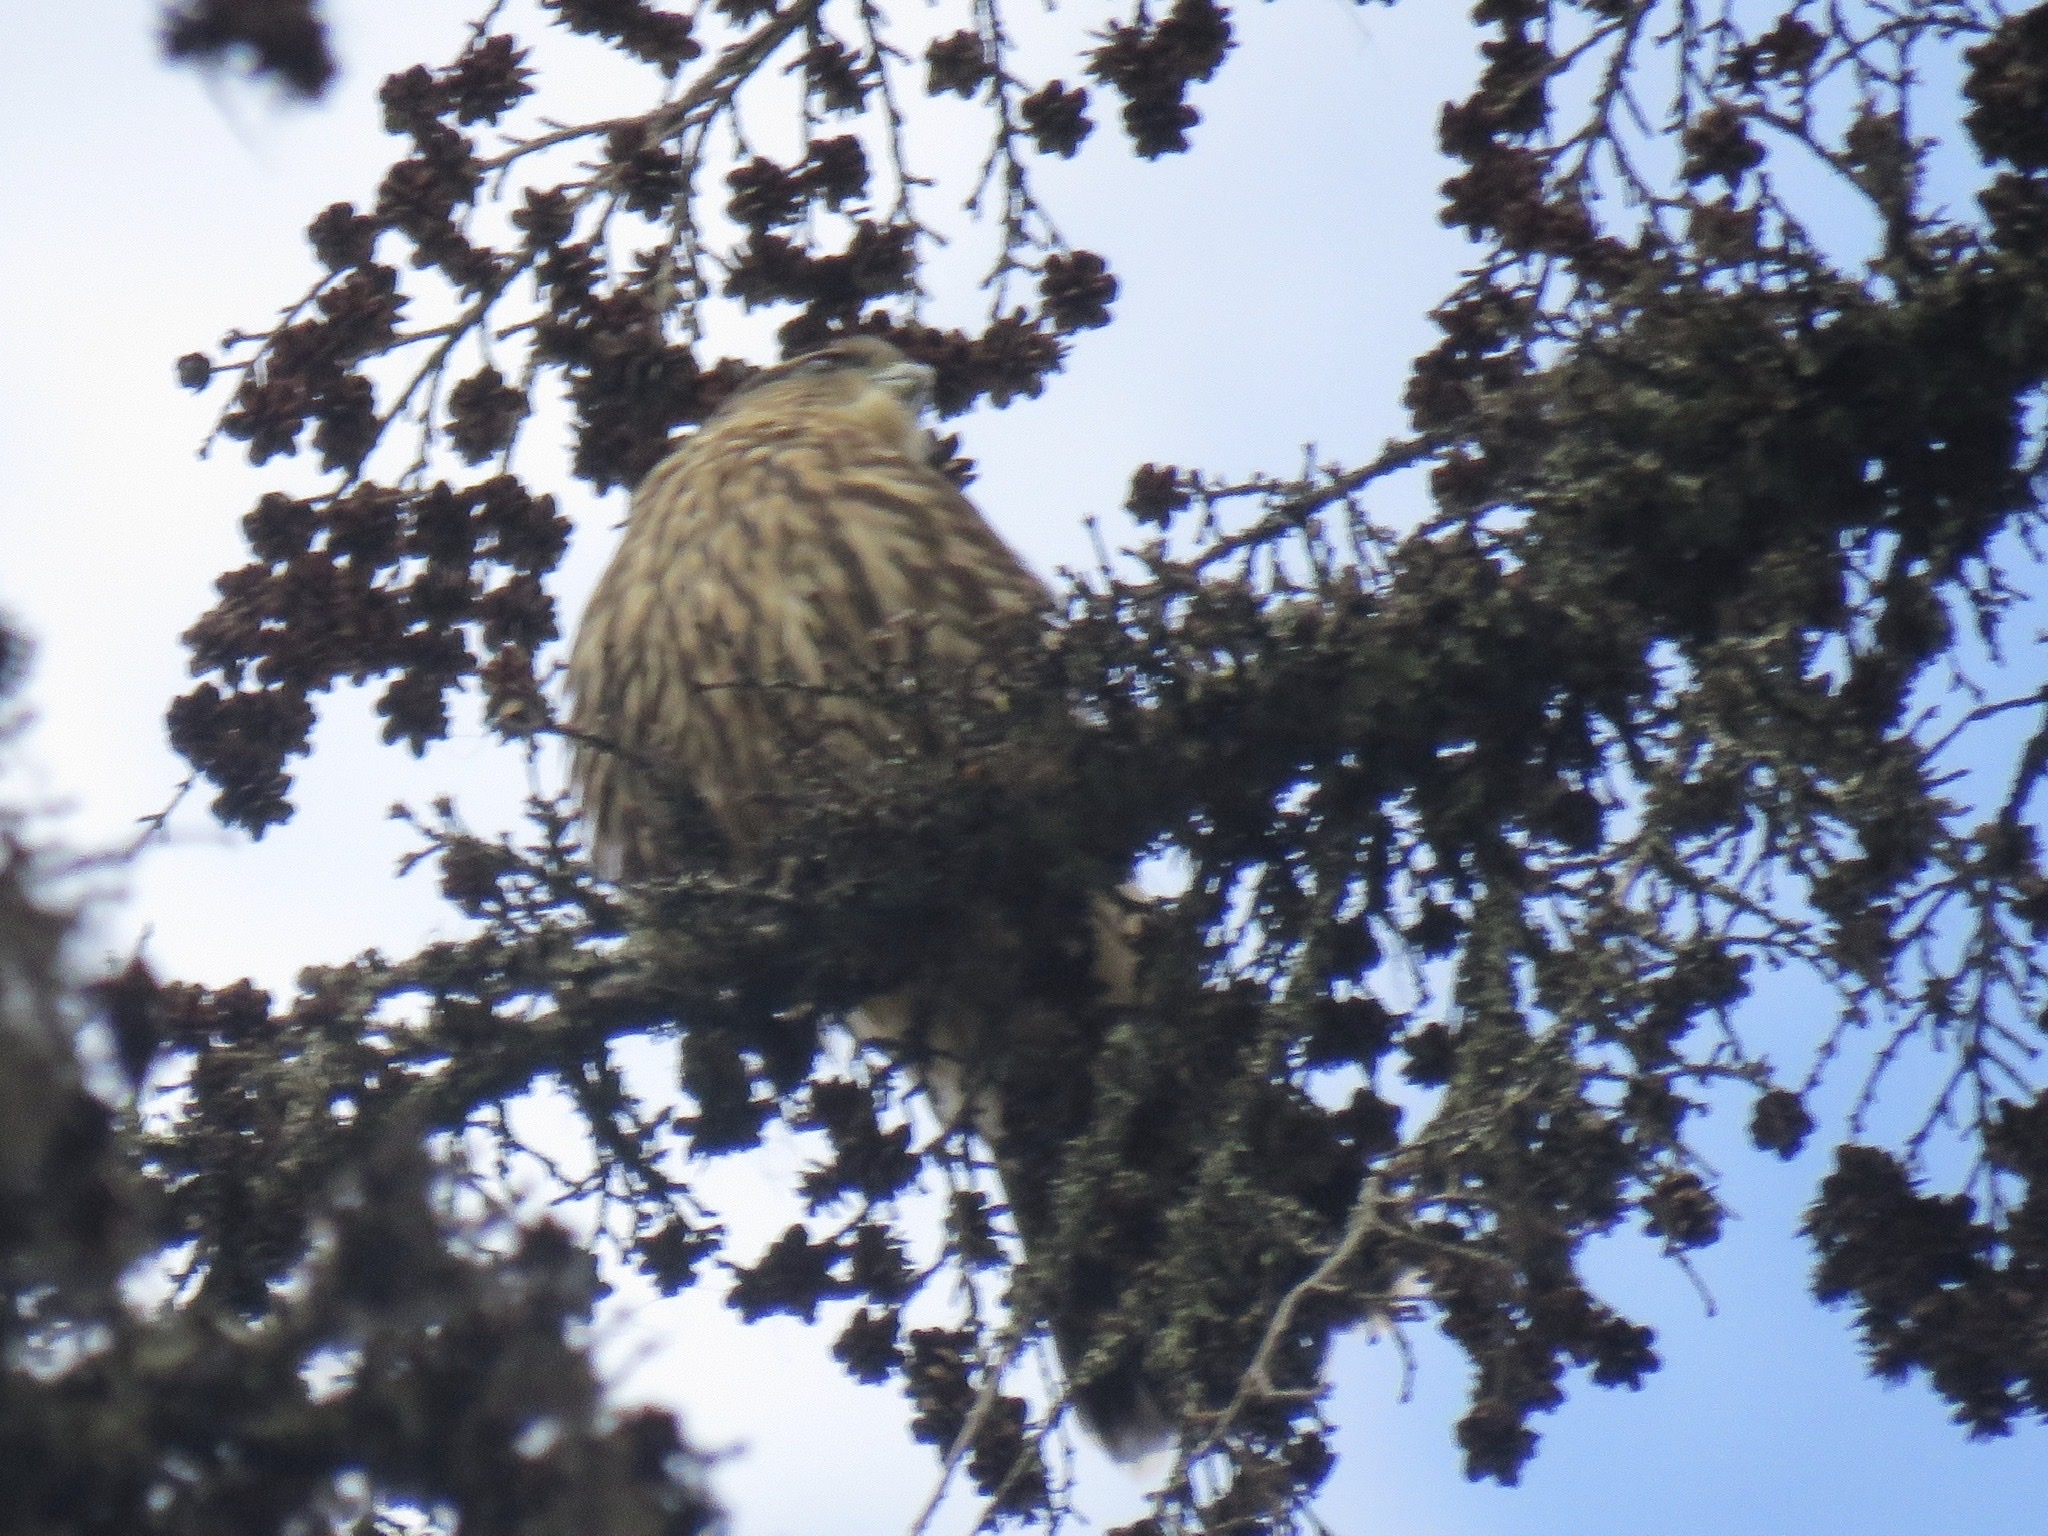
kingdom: Animalia
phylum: Chordata
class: Aves
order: Falconiformes
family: Falconidae
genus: Falco
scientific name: Falco columbarius
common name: Merlin
